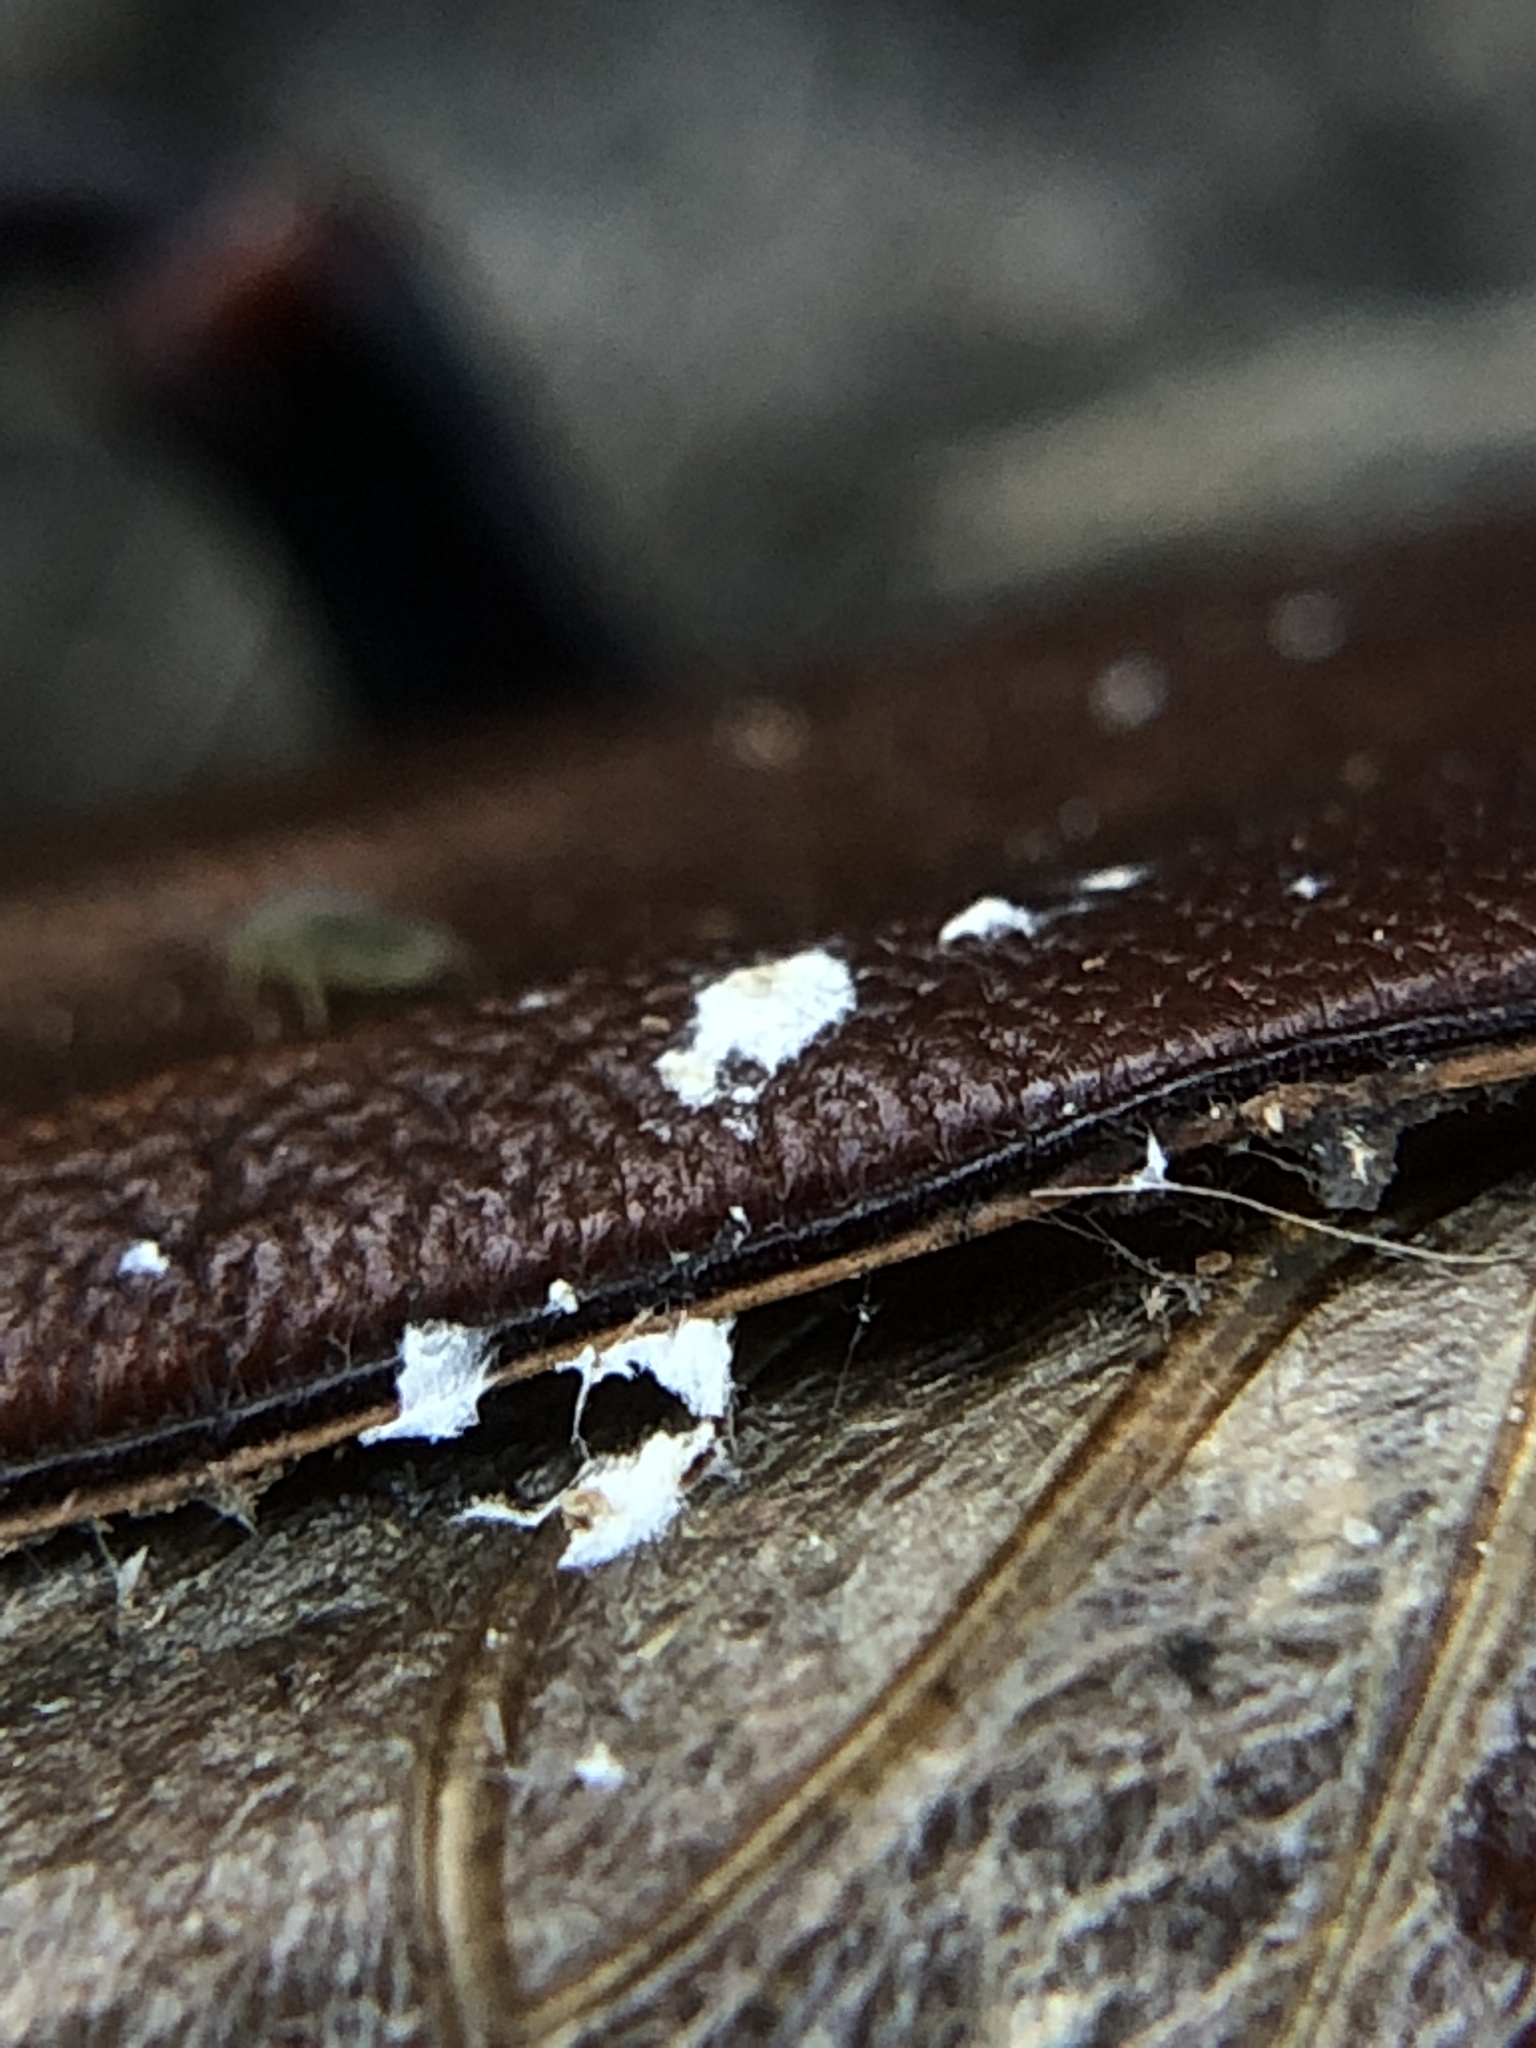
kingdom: Fungi
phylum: Ascomycota
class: Sordariomycetes
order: Hypocreales
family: Cordycipitaceae
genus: Beauveria
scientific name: Beauveria bassiana
